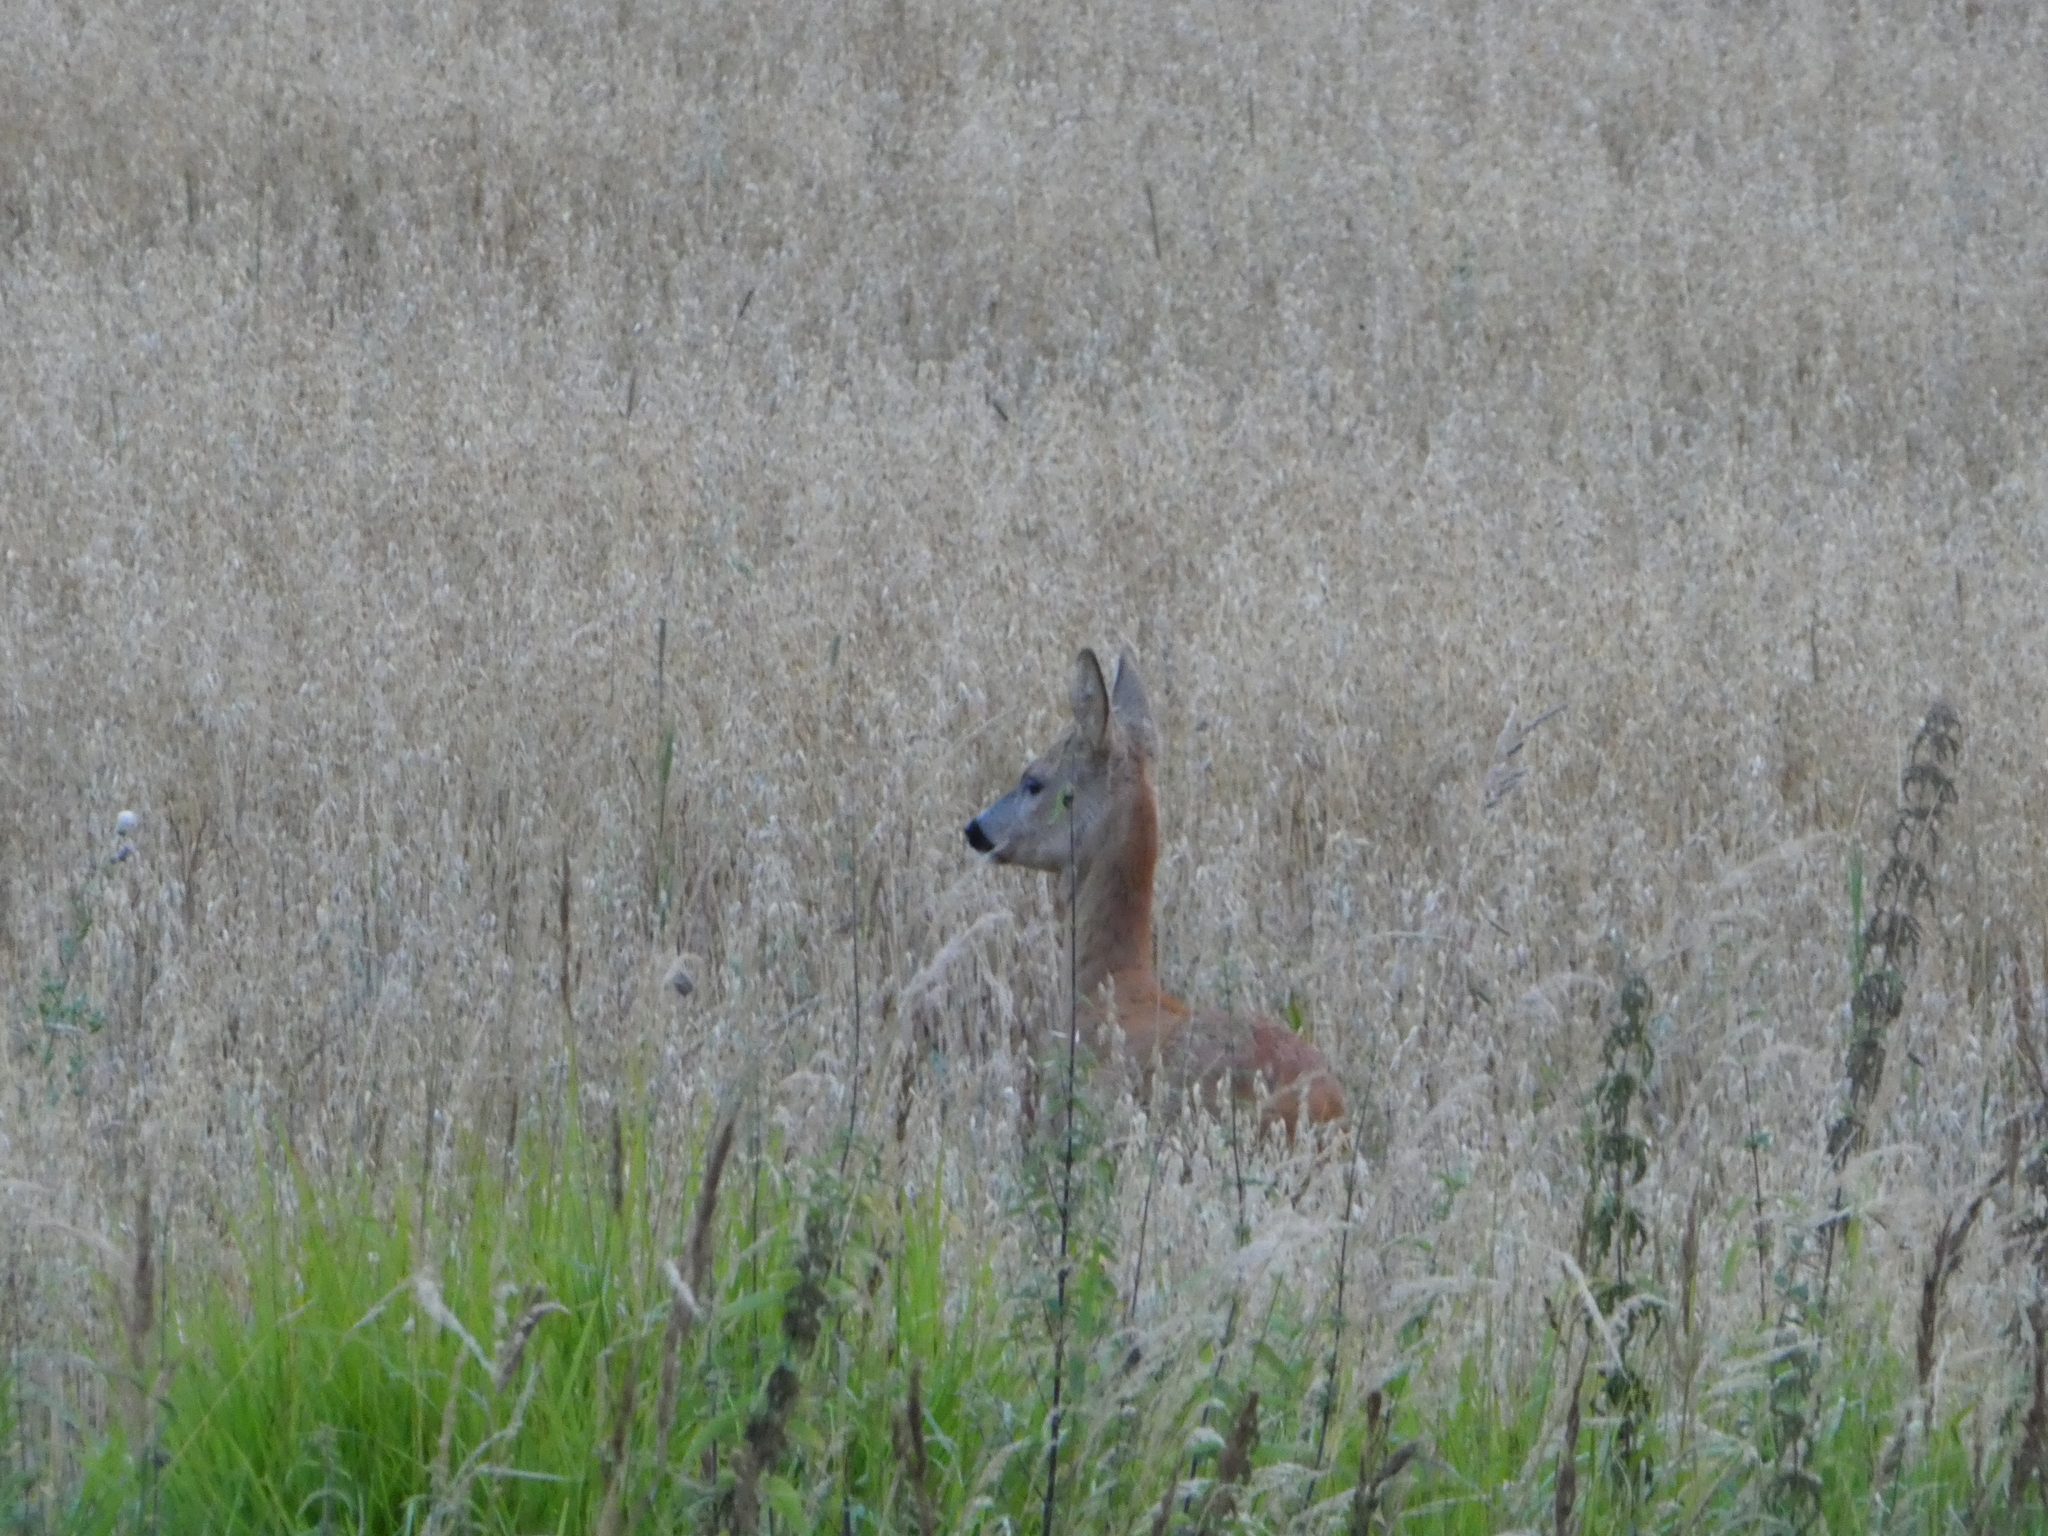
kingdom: Animalia
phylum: Chordata
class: Mammalia
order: Artiodactyla
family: Cervidae
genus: Capreolus
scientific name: Capreolus capreolus
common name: Western roe deer
